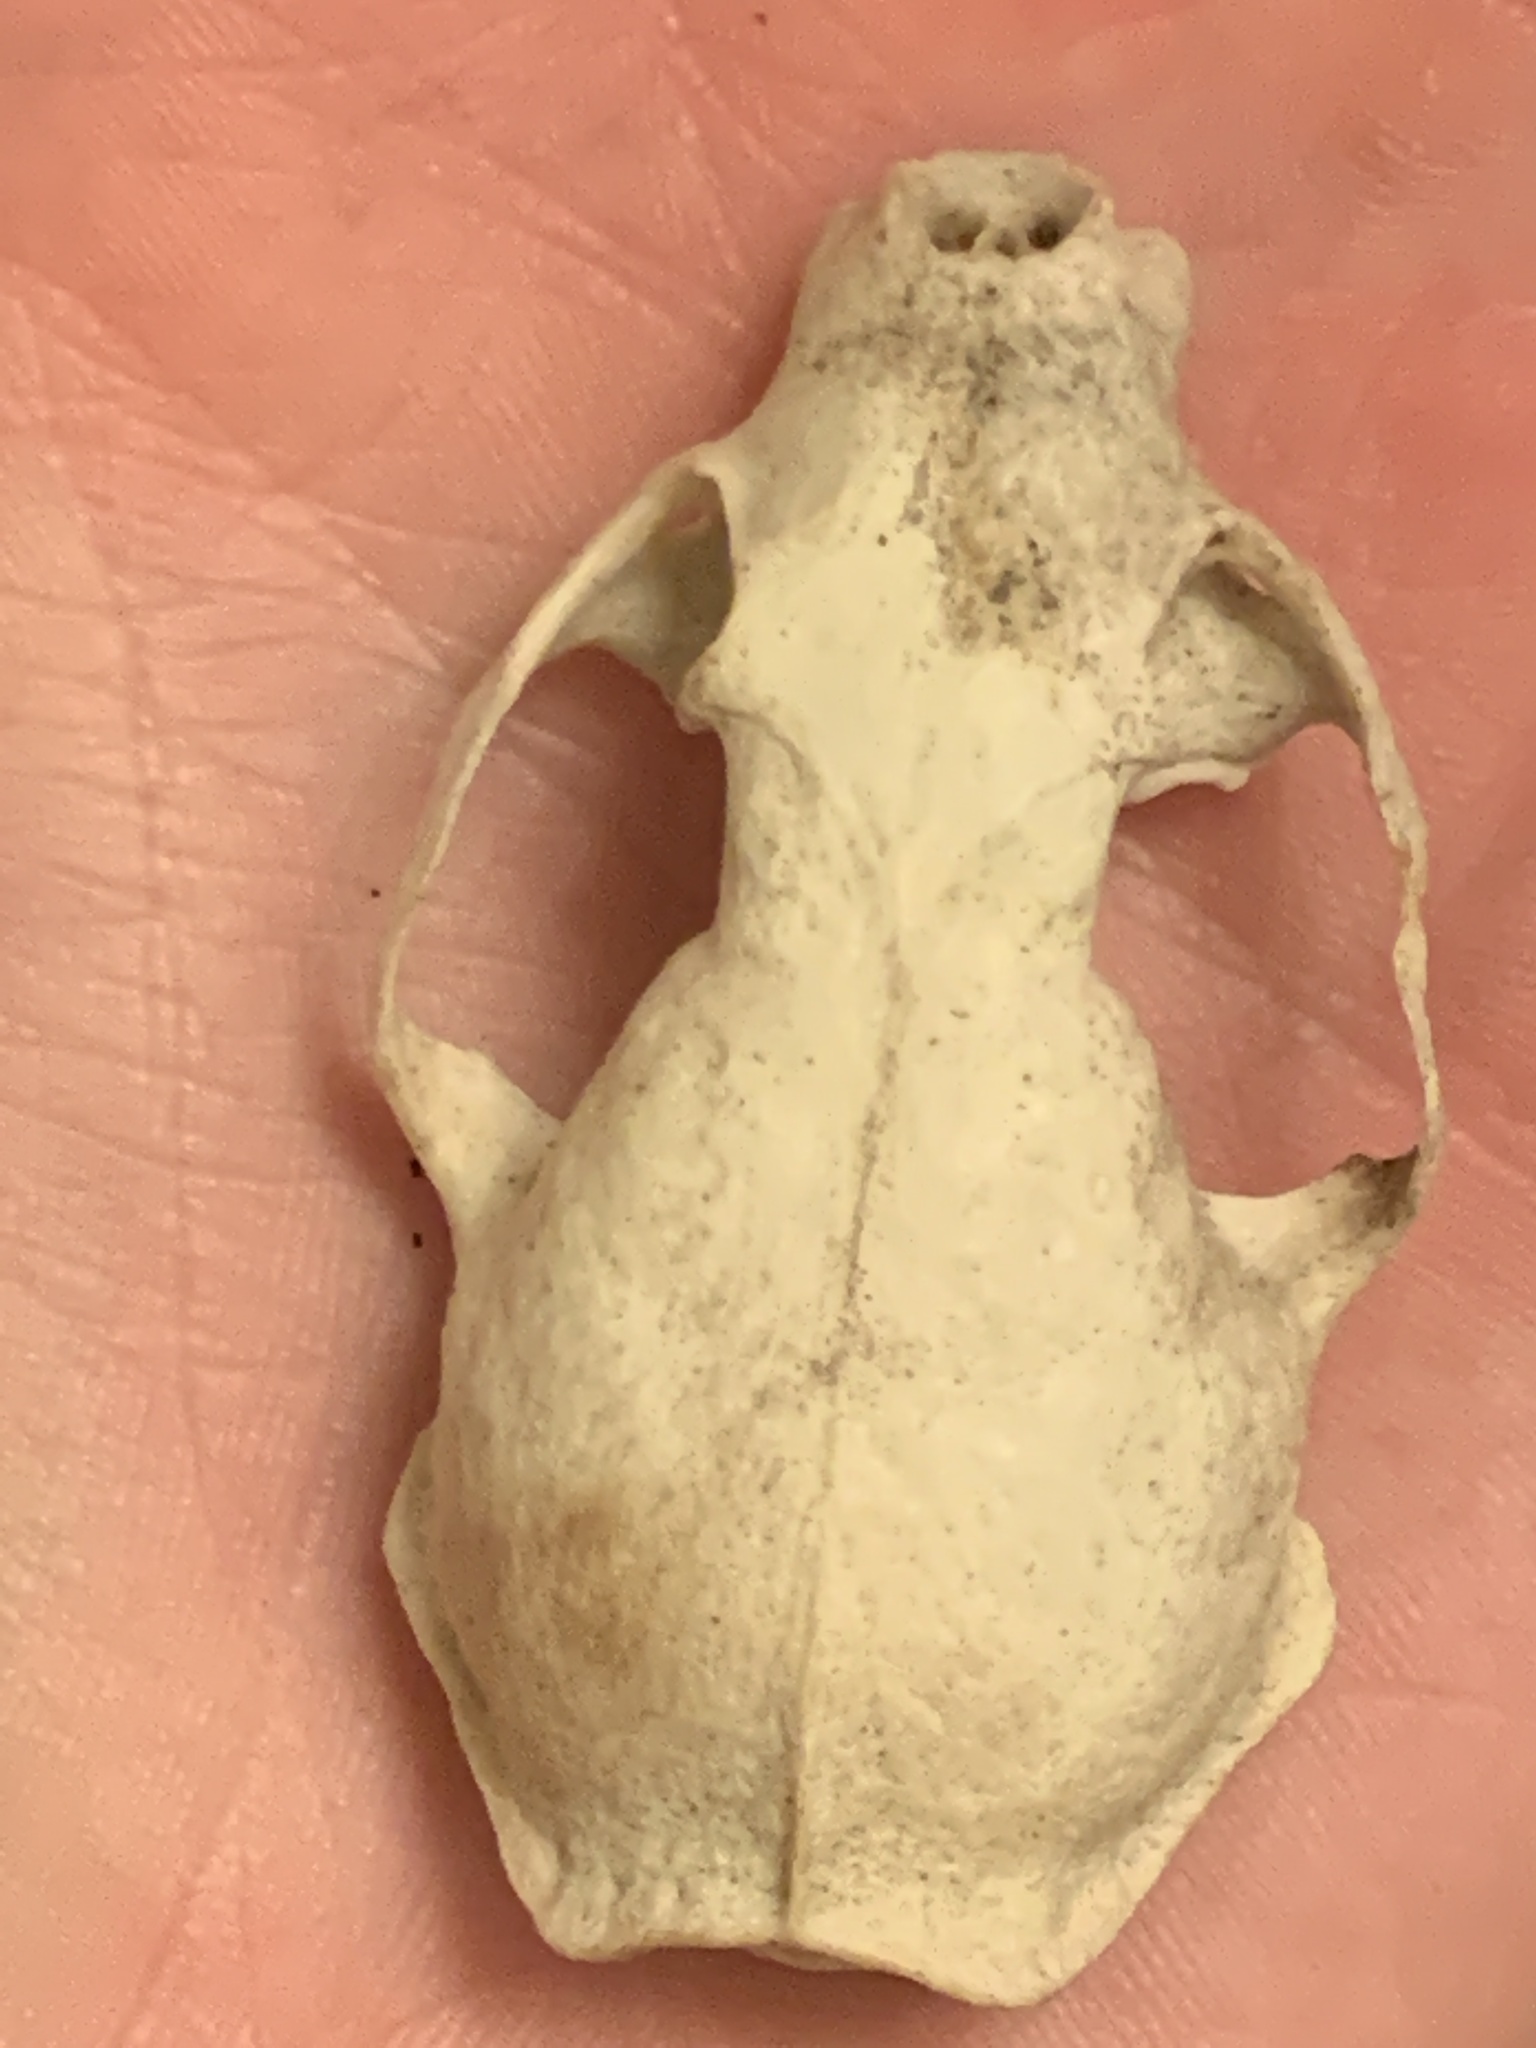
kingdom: Animalia
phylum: Chordata
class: Mammalia
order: Carnivora
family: Mustelidae
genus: Mustela
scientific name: Mustela
